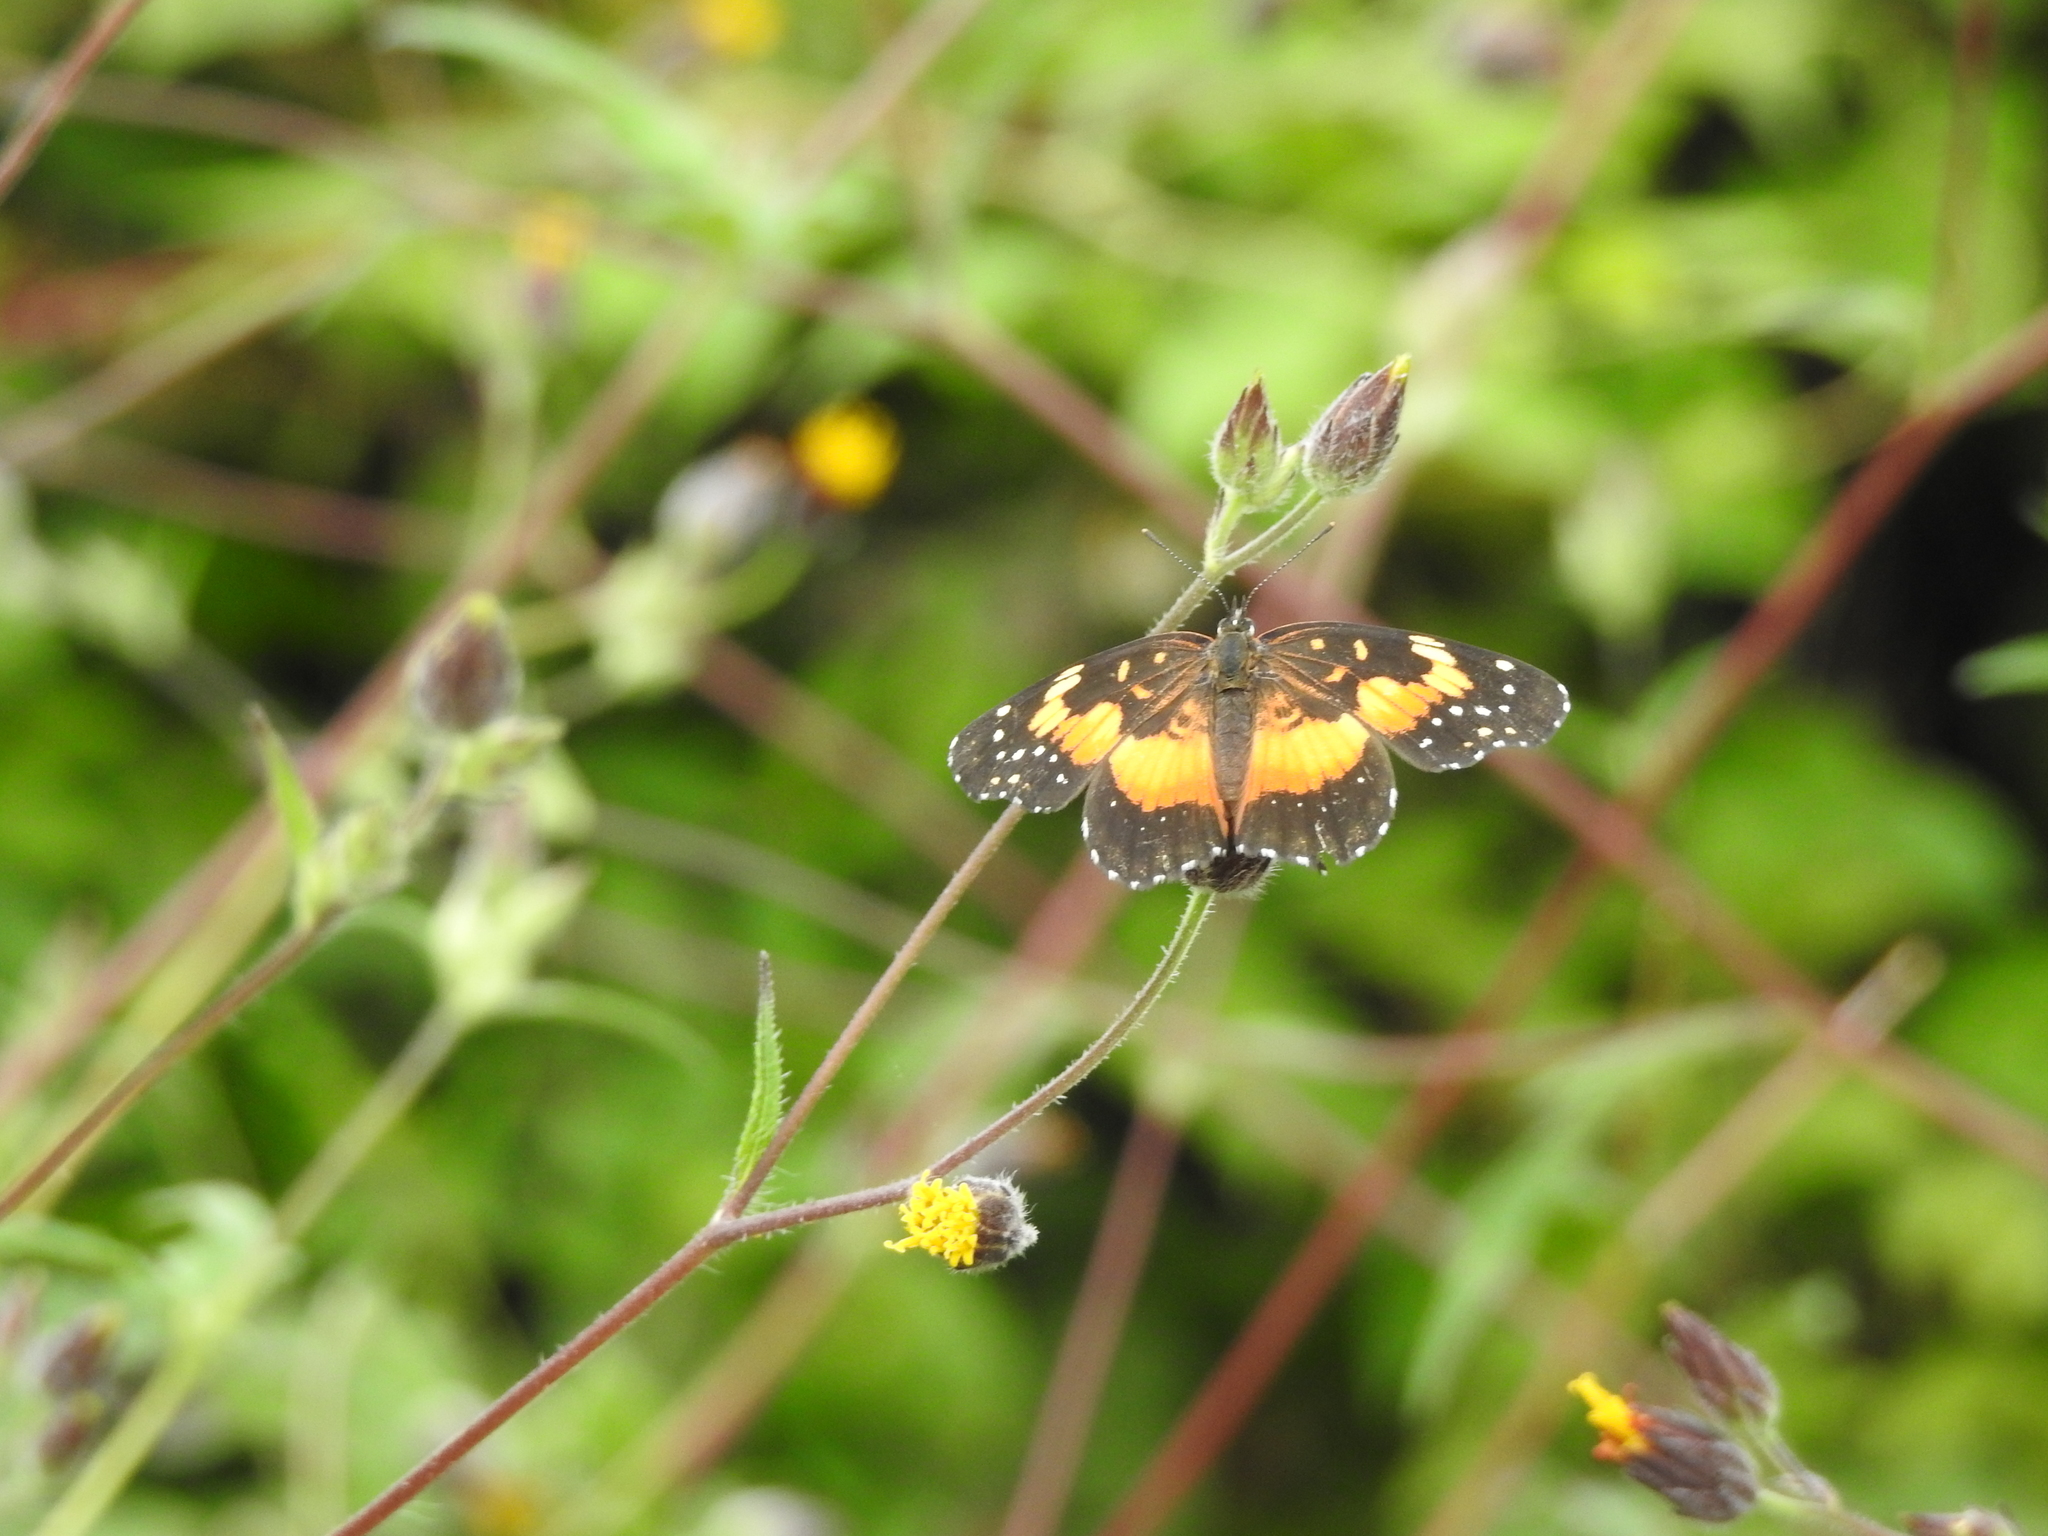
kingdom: Animalia
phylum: Arthropoda
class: Insecta
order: Lepidoptera
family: Nymphalidae
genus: Chlosyne
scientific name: Chlosyne lacinia
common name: Bordered patch
